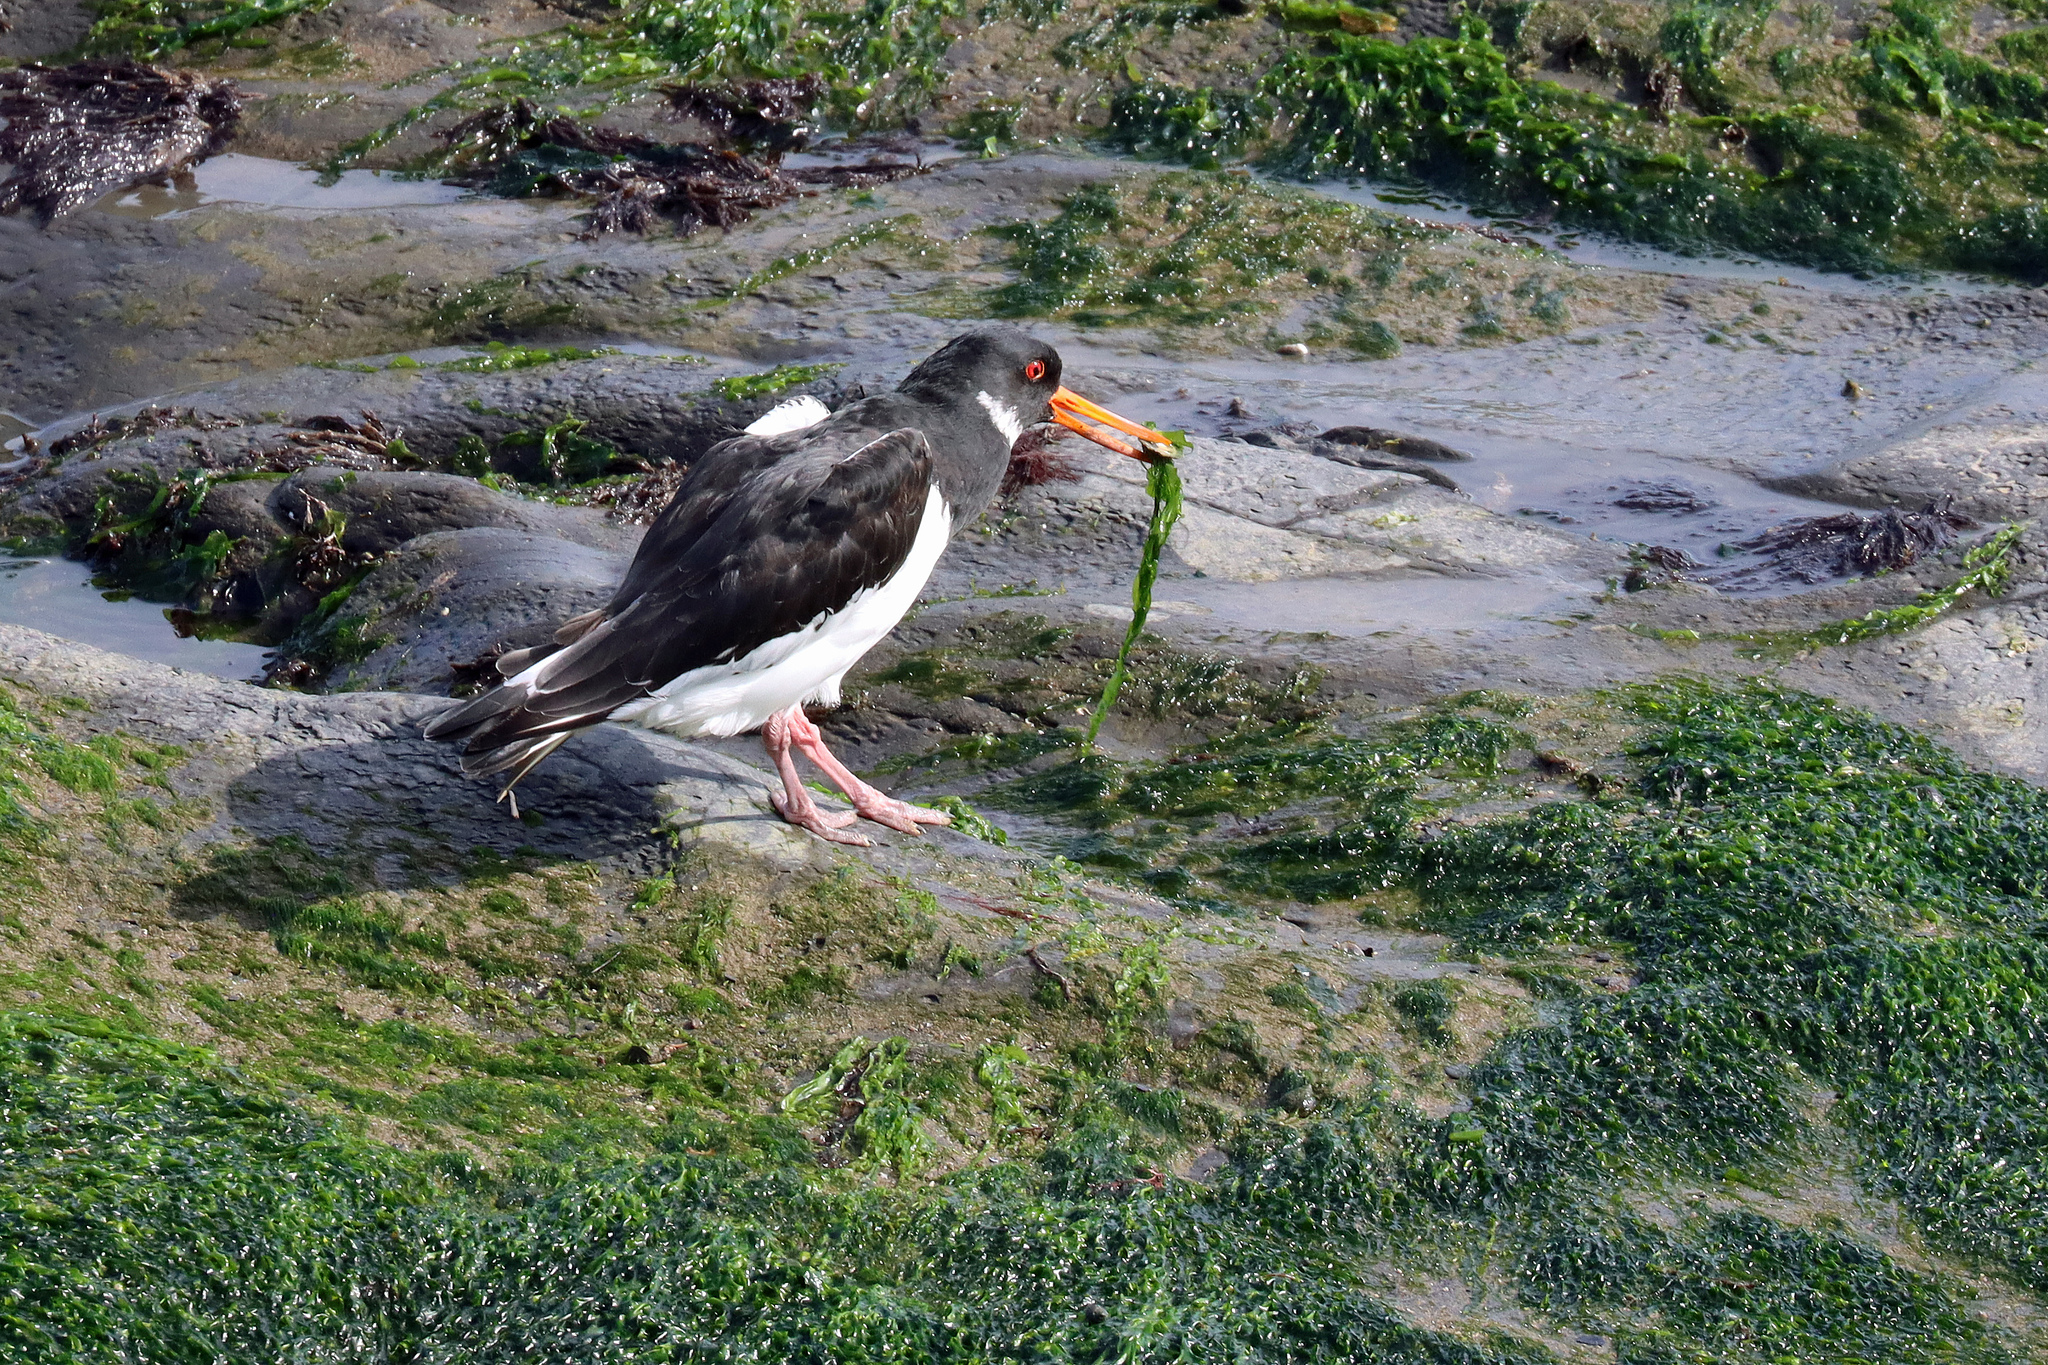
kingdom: Animalia
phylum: Chordata
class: Aves
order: Charadriiformes
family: Haematopodidae
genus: Haematopus
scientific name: Haematopus ostralegus
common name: Eurasian oystercatcher
